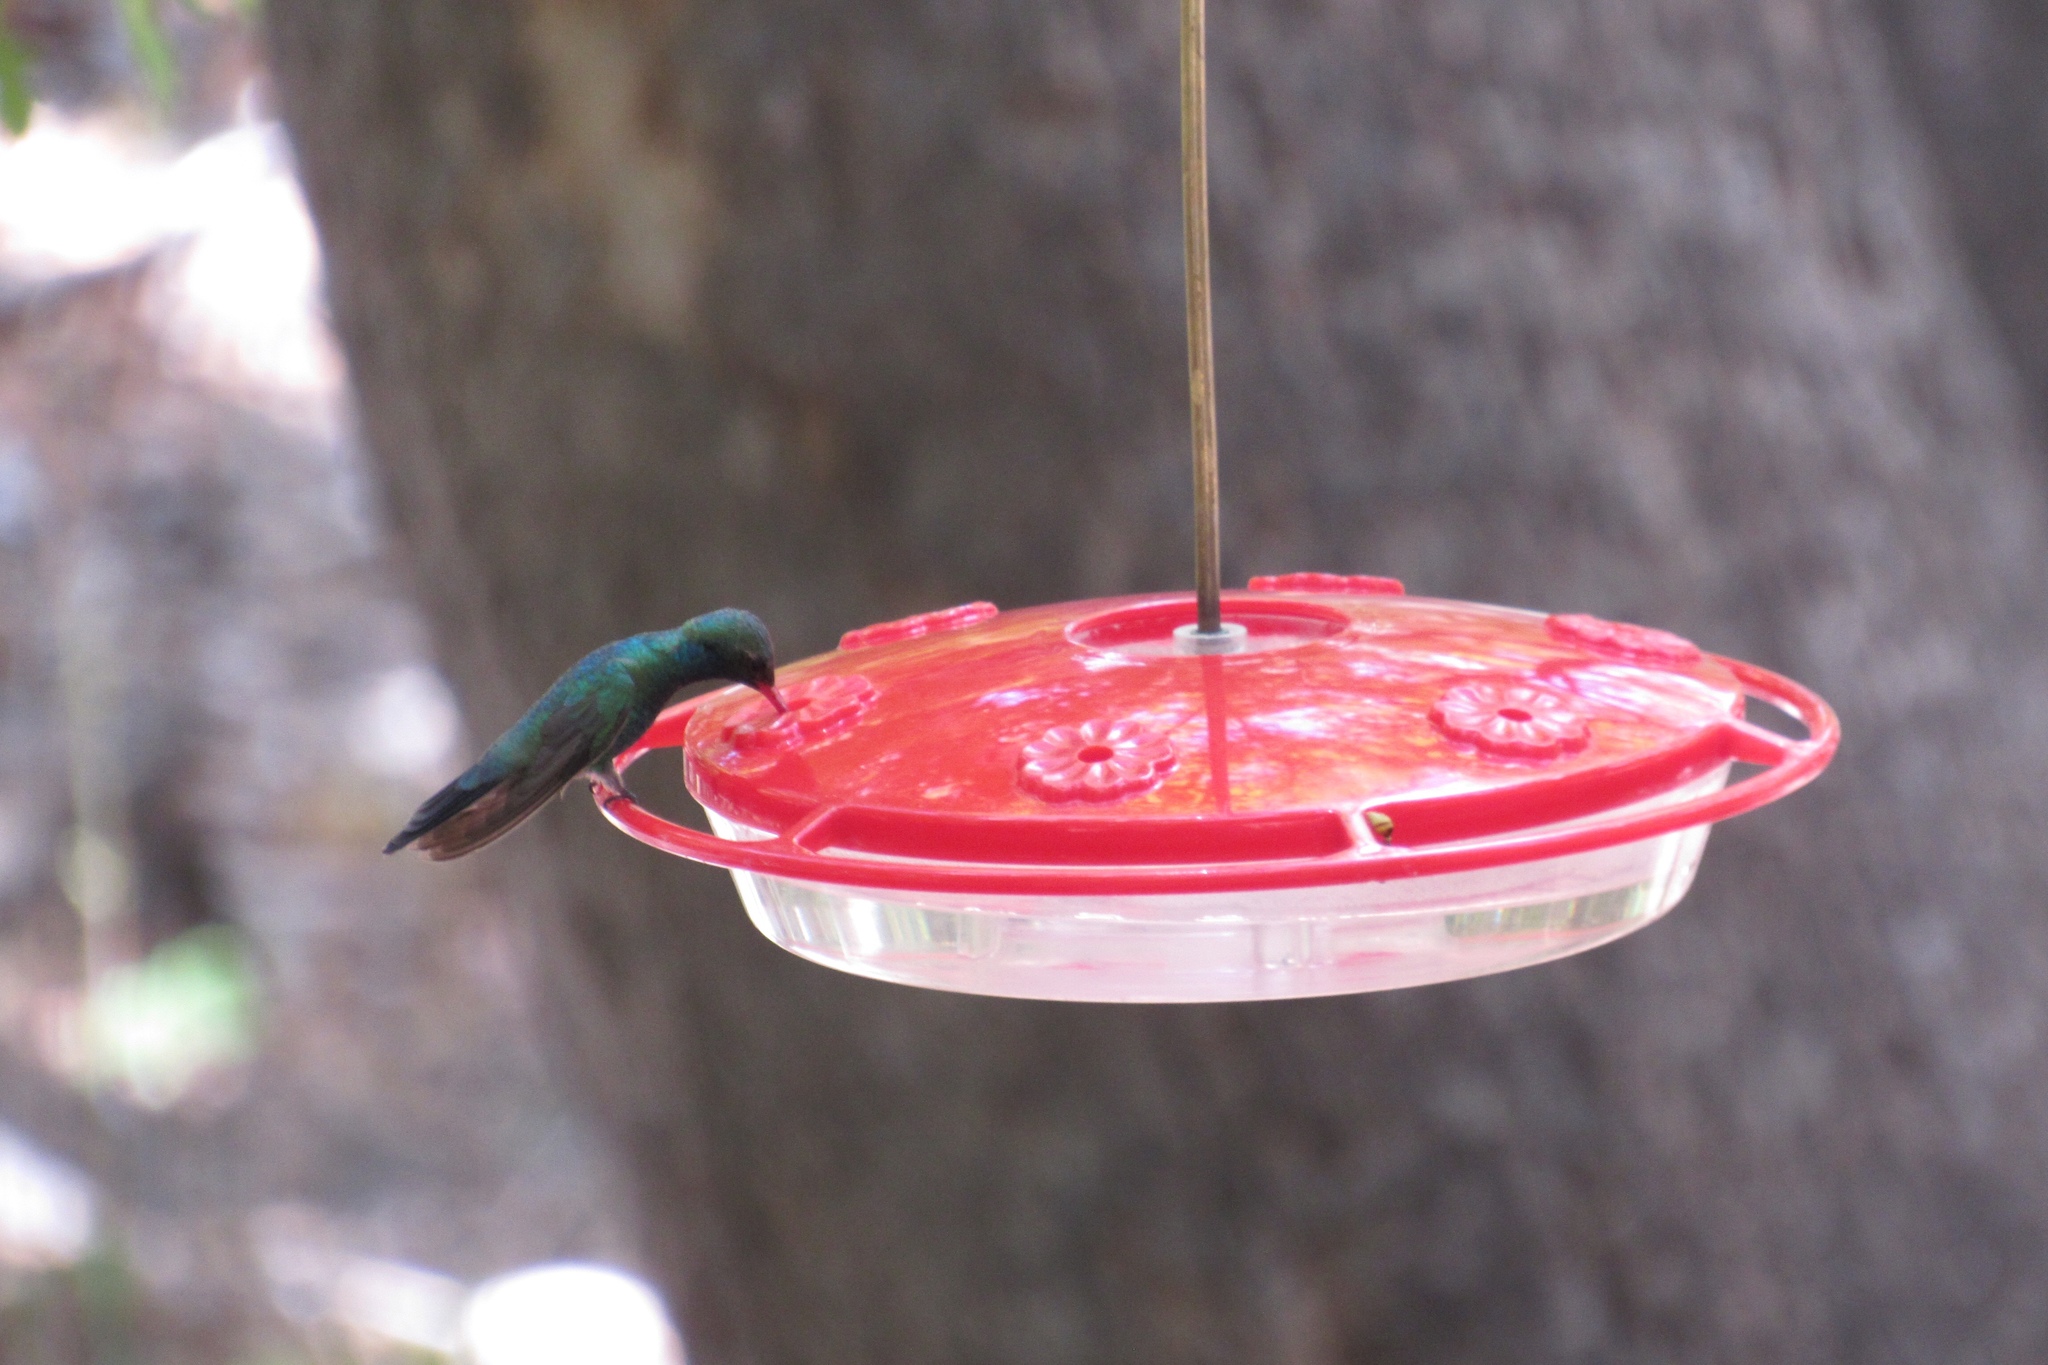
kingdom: Animalia
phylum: Chordata
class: Aves
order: Apodiformes
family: Trochilidae
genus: Cynanthus
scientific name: Cynanthus latirostris
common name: Broad-billed hummingbird
